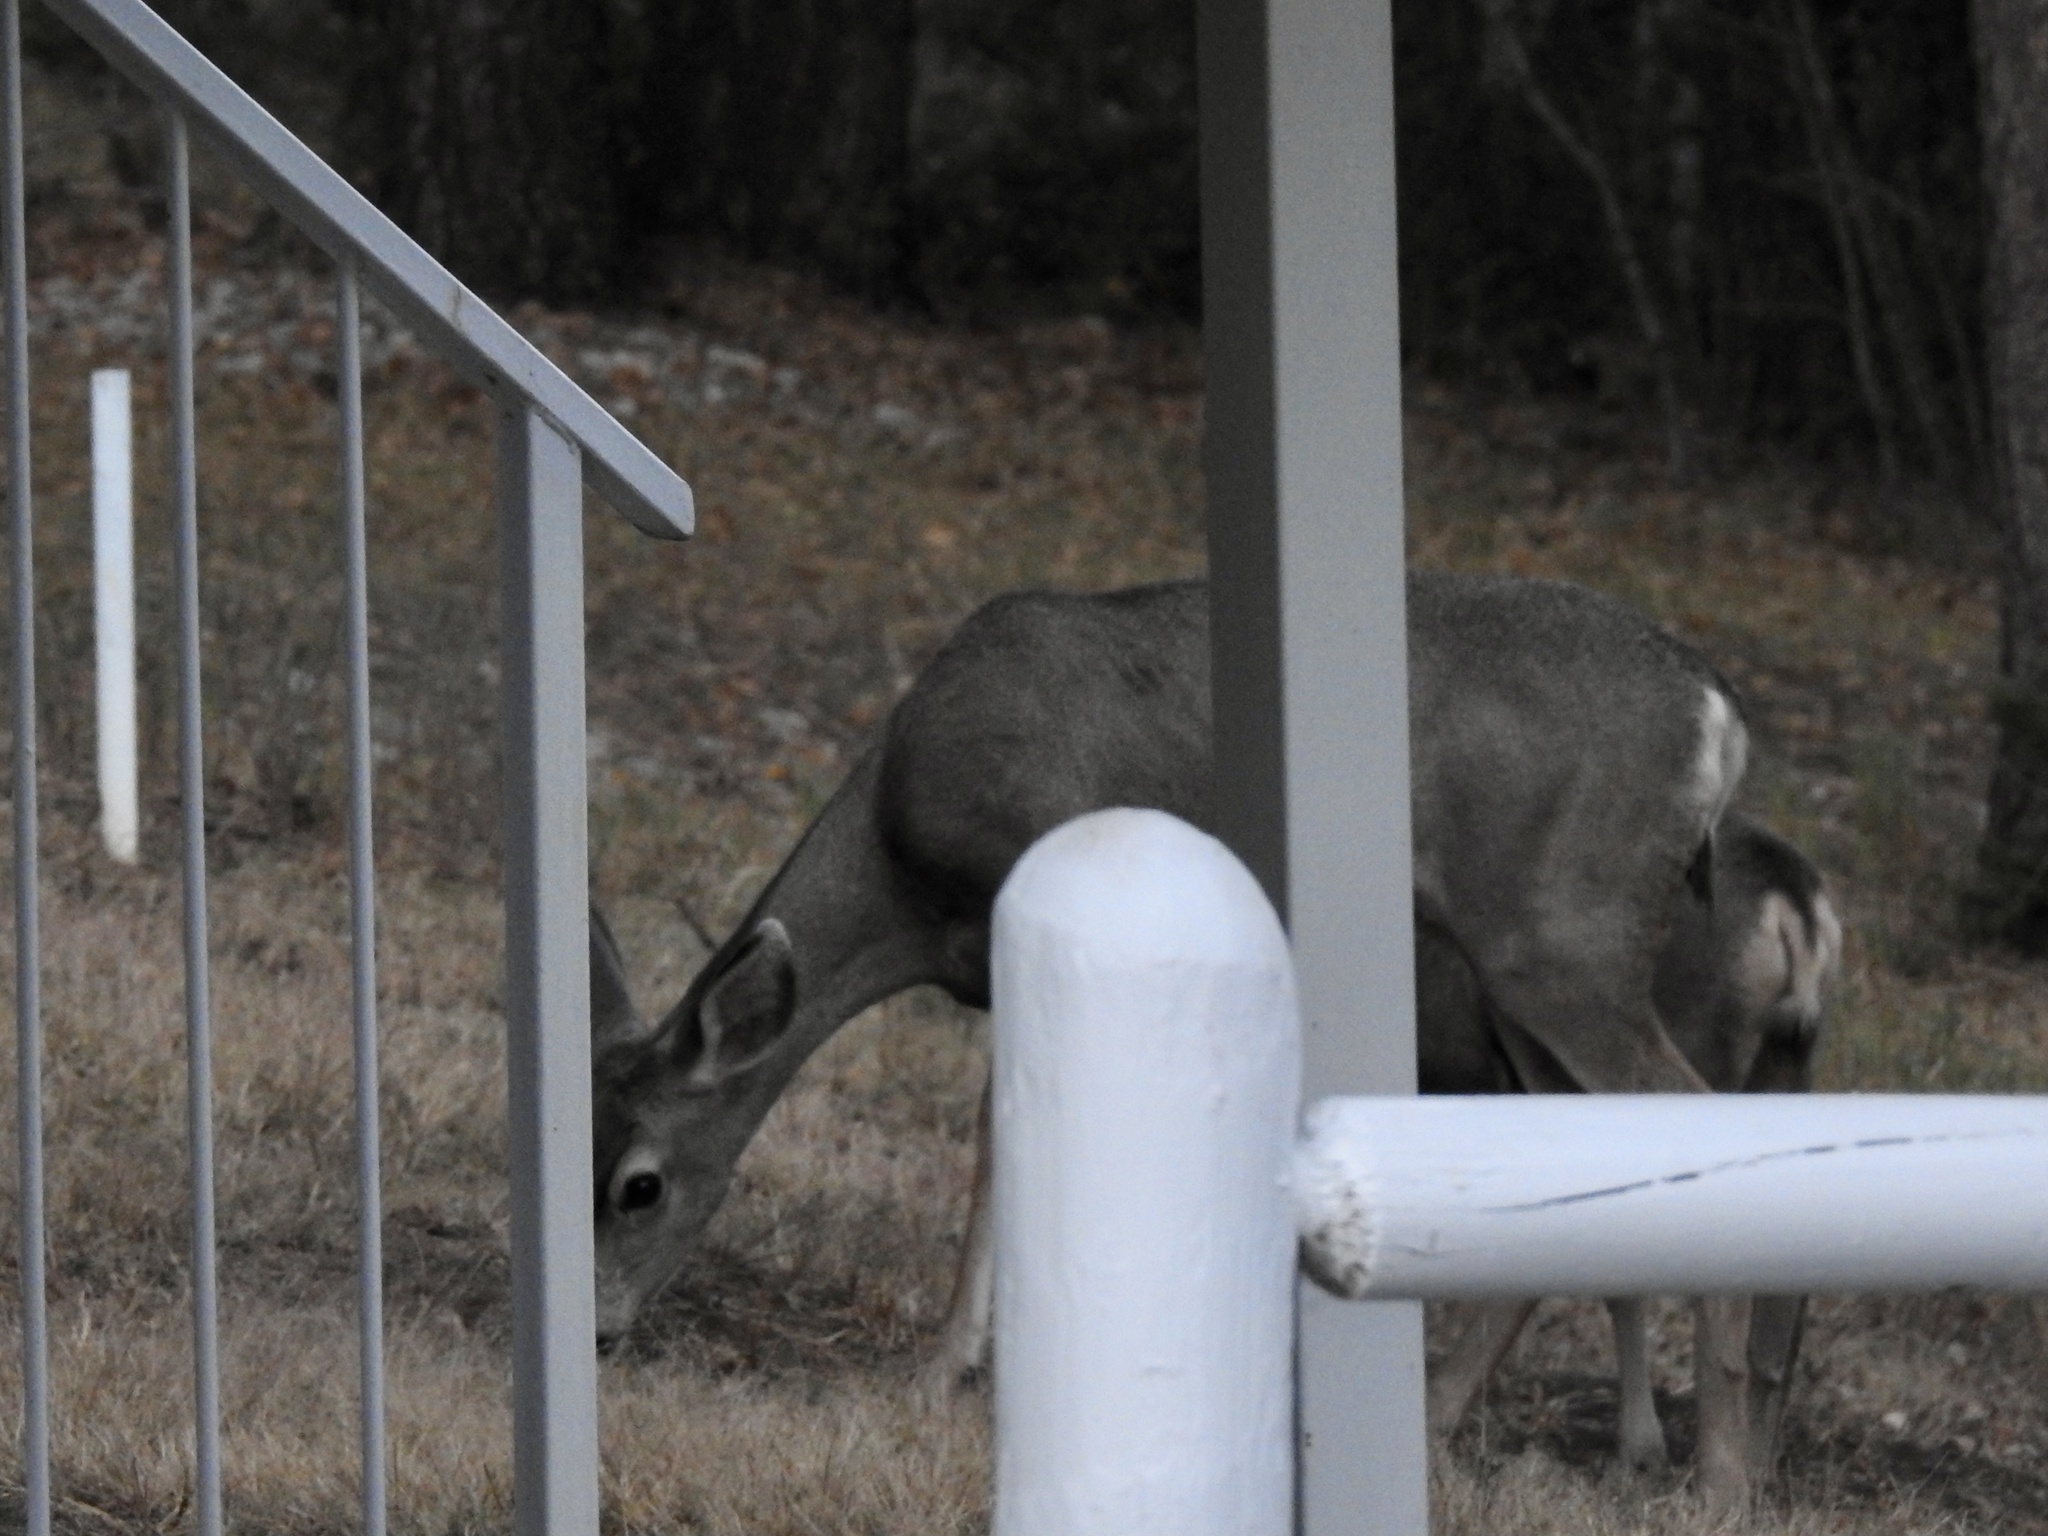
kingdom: Animalia
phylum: Chordata
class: Mammalia
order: Artiodactyla
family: Cervidae
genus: Odocoileus
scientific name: Odocoileus hemionus
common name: Mule deer
